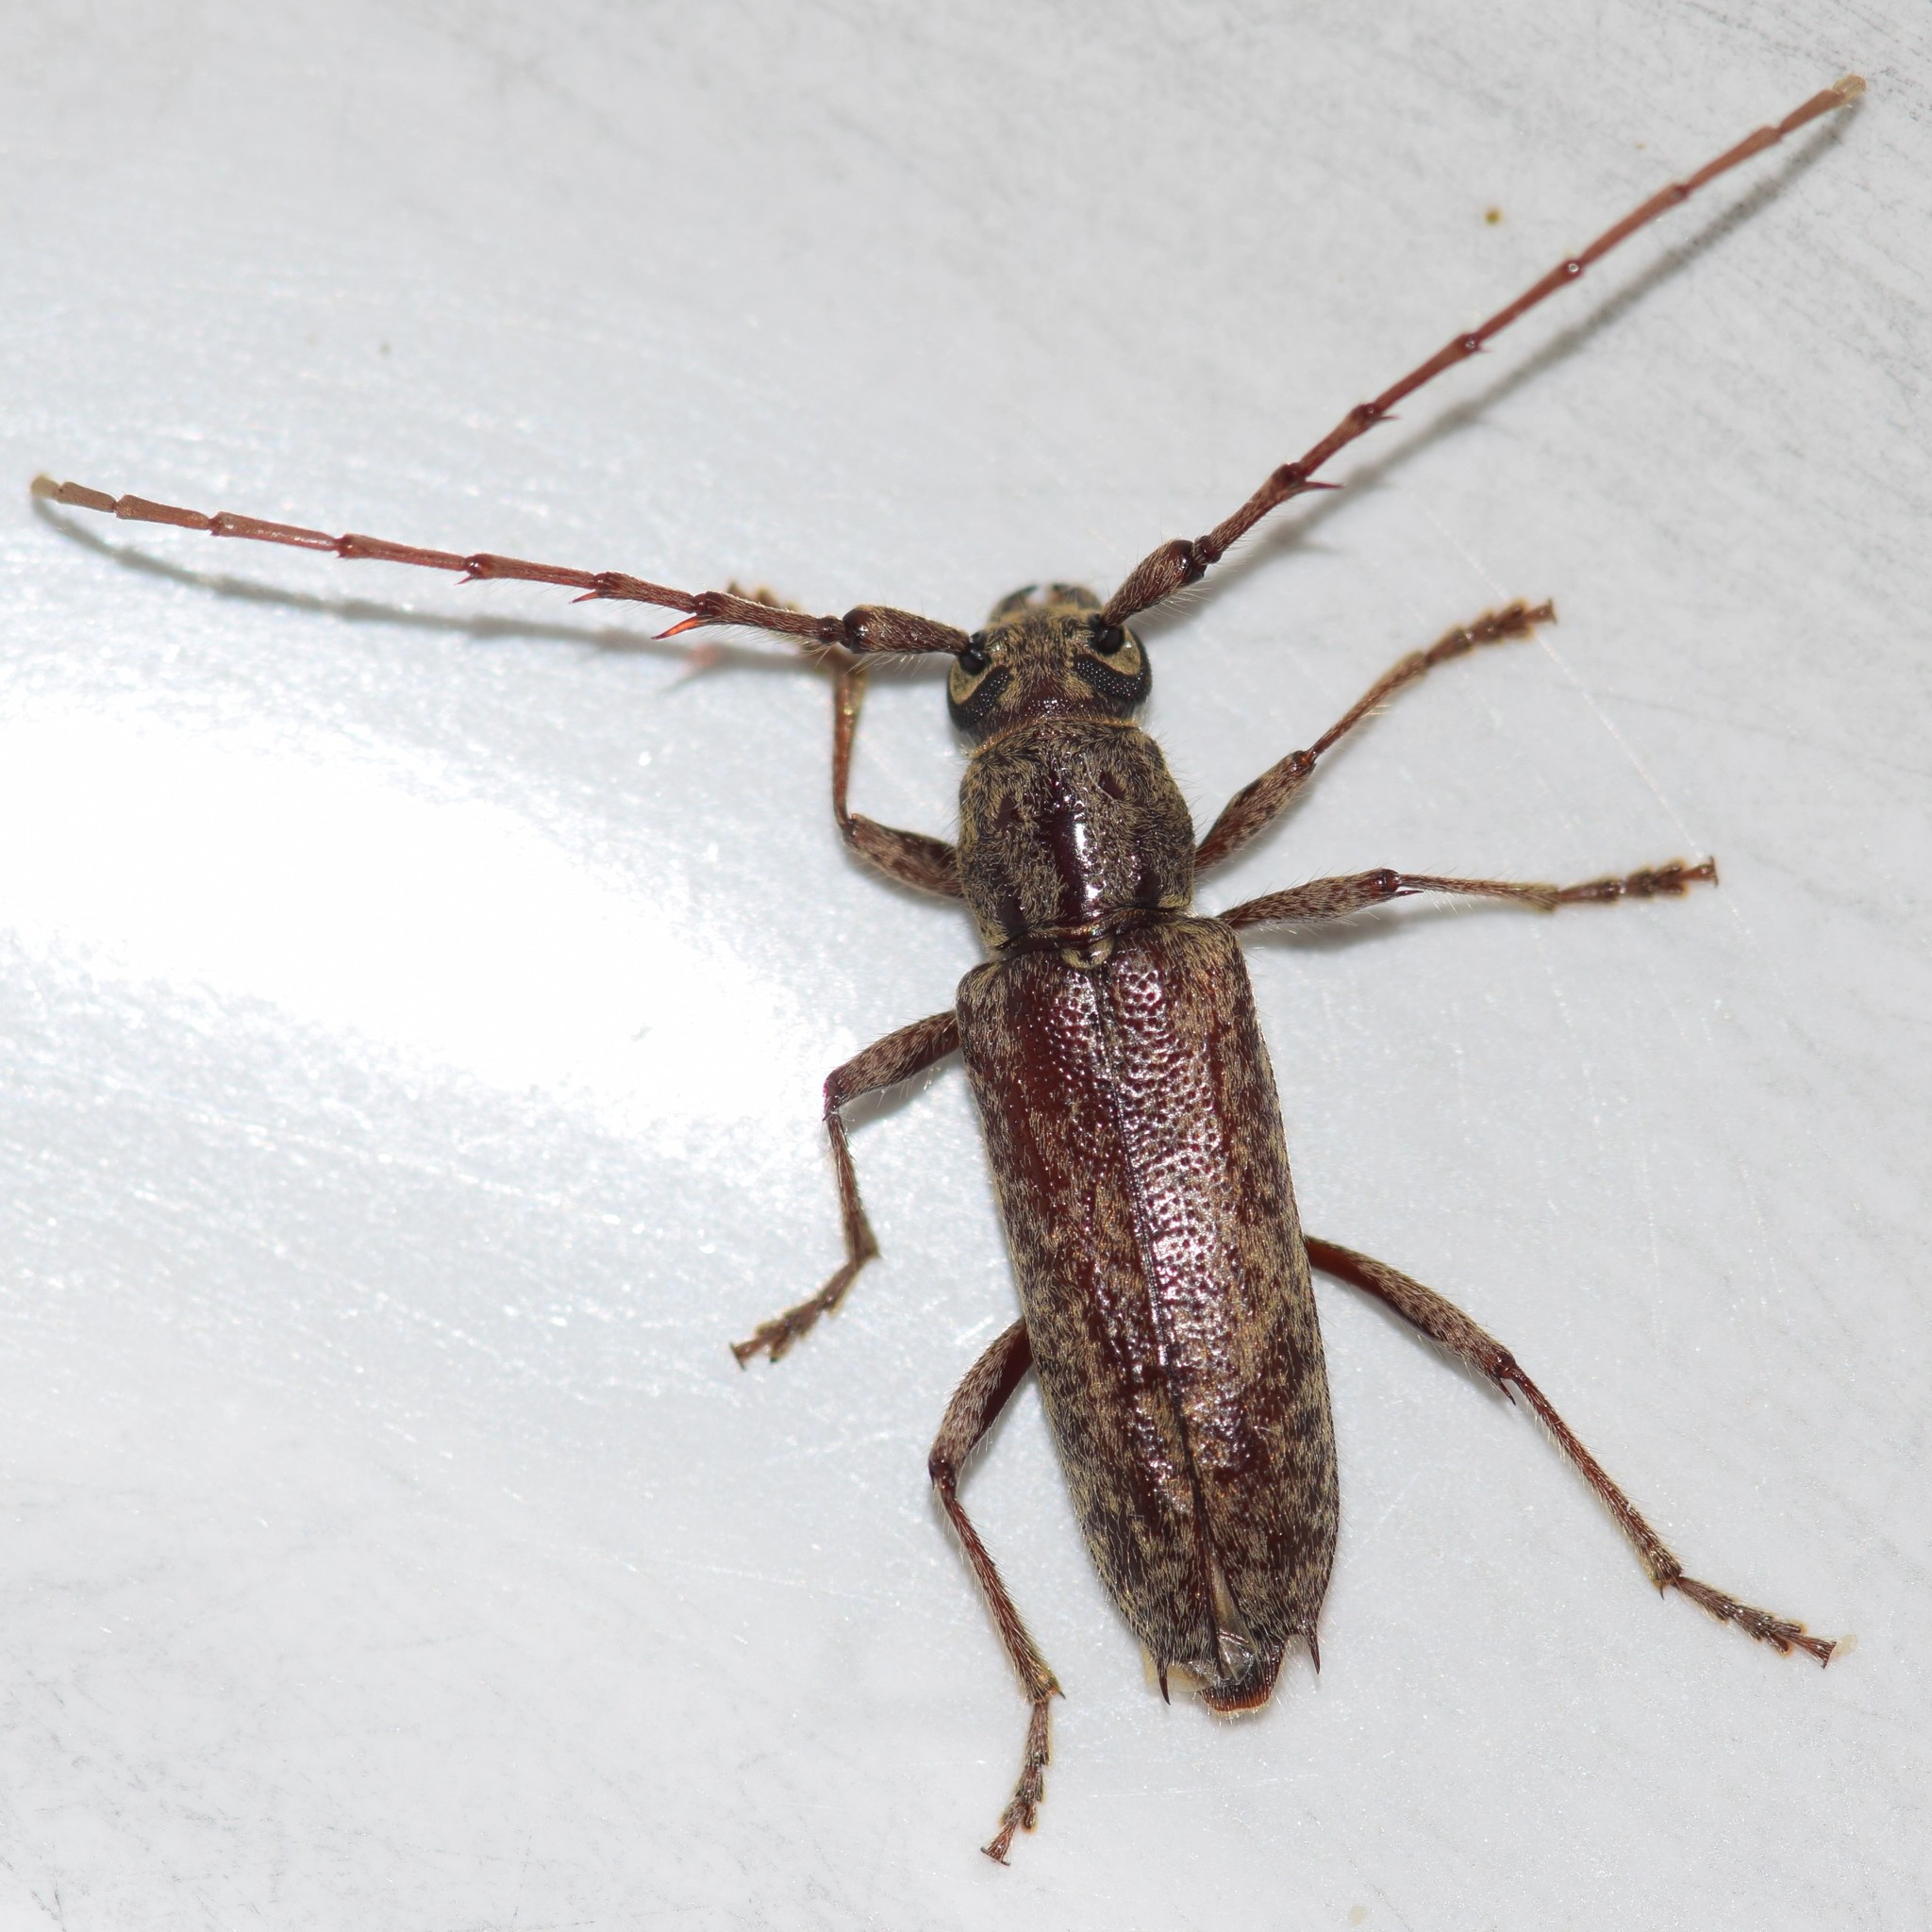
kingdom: Animalia
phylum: Arthropoda
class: Insecta
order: Coleoptera
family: Cerambycidae
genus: Elaphidion
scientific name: Elaphidion mucronatum
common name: Spined oak borer
